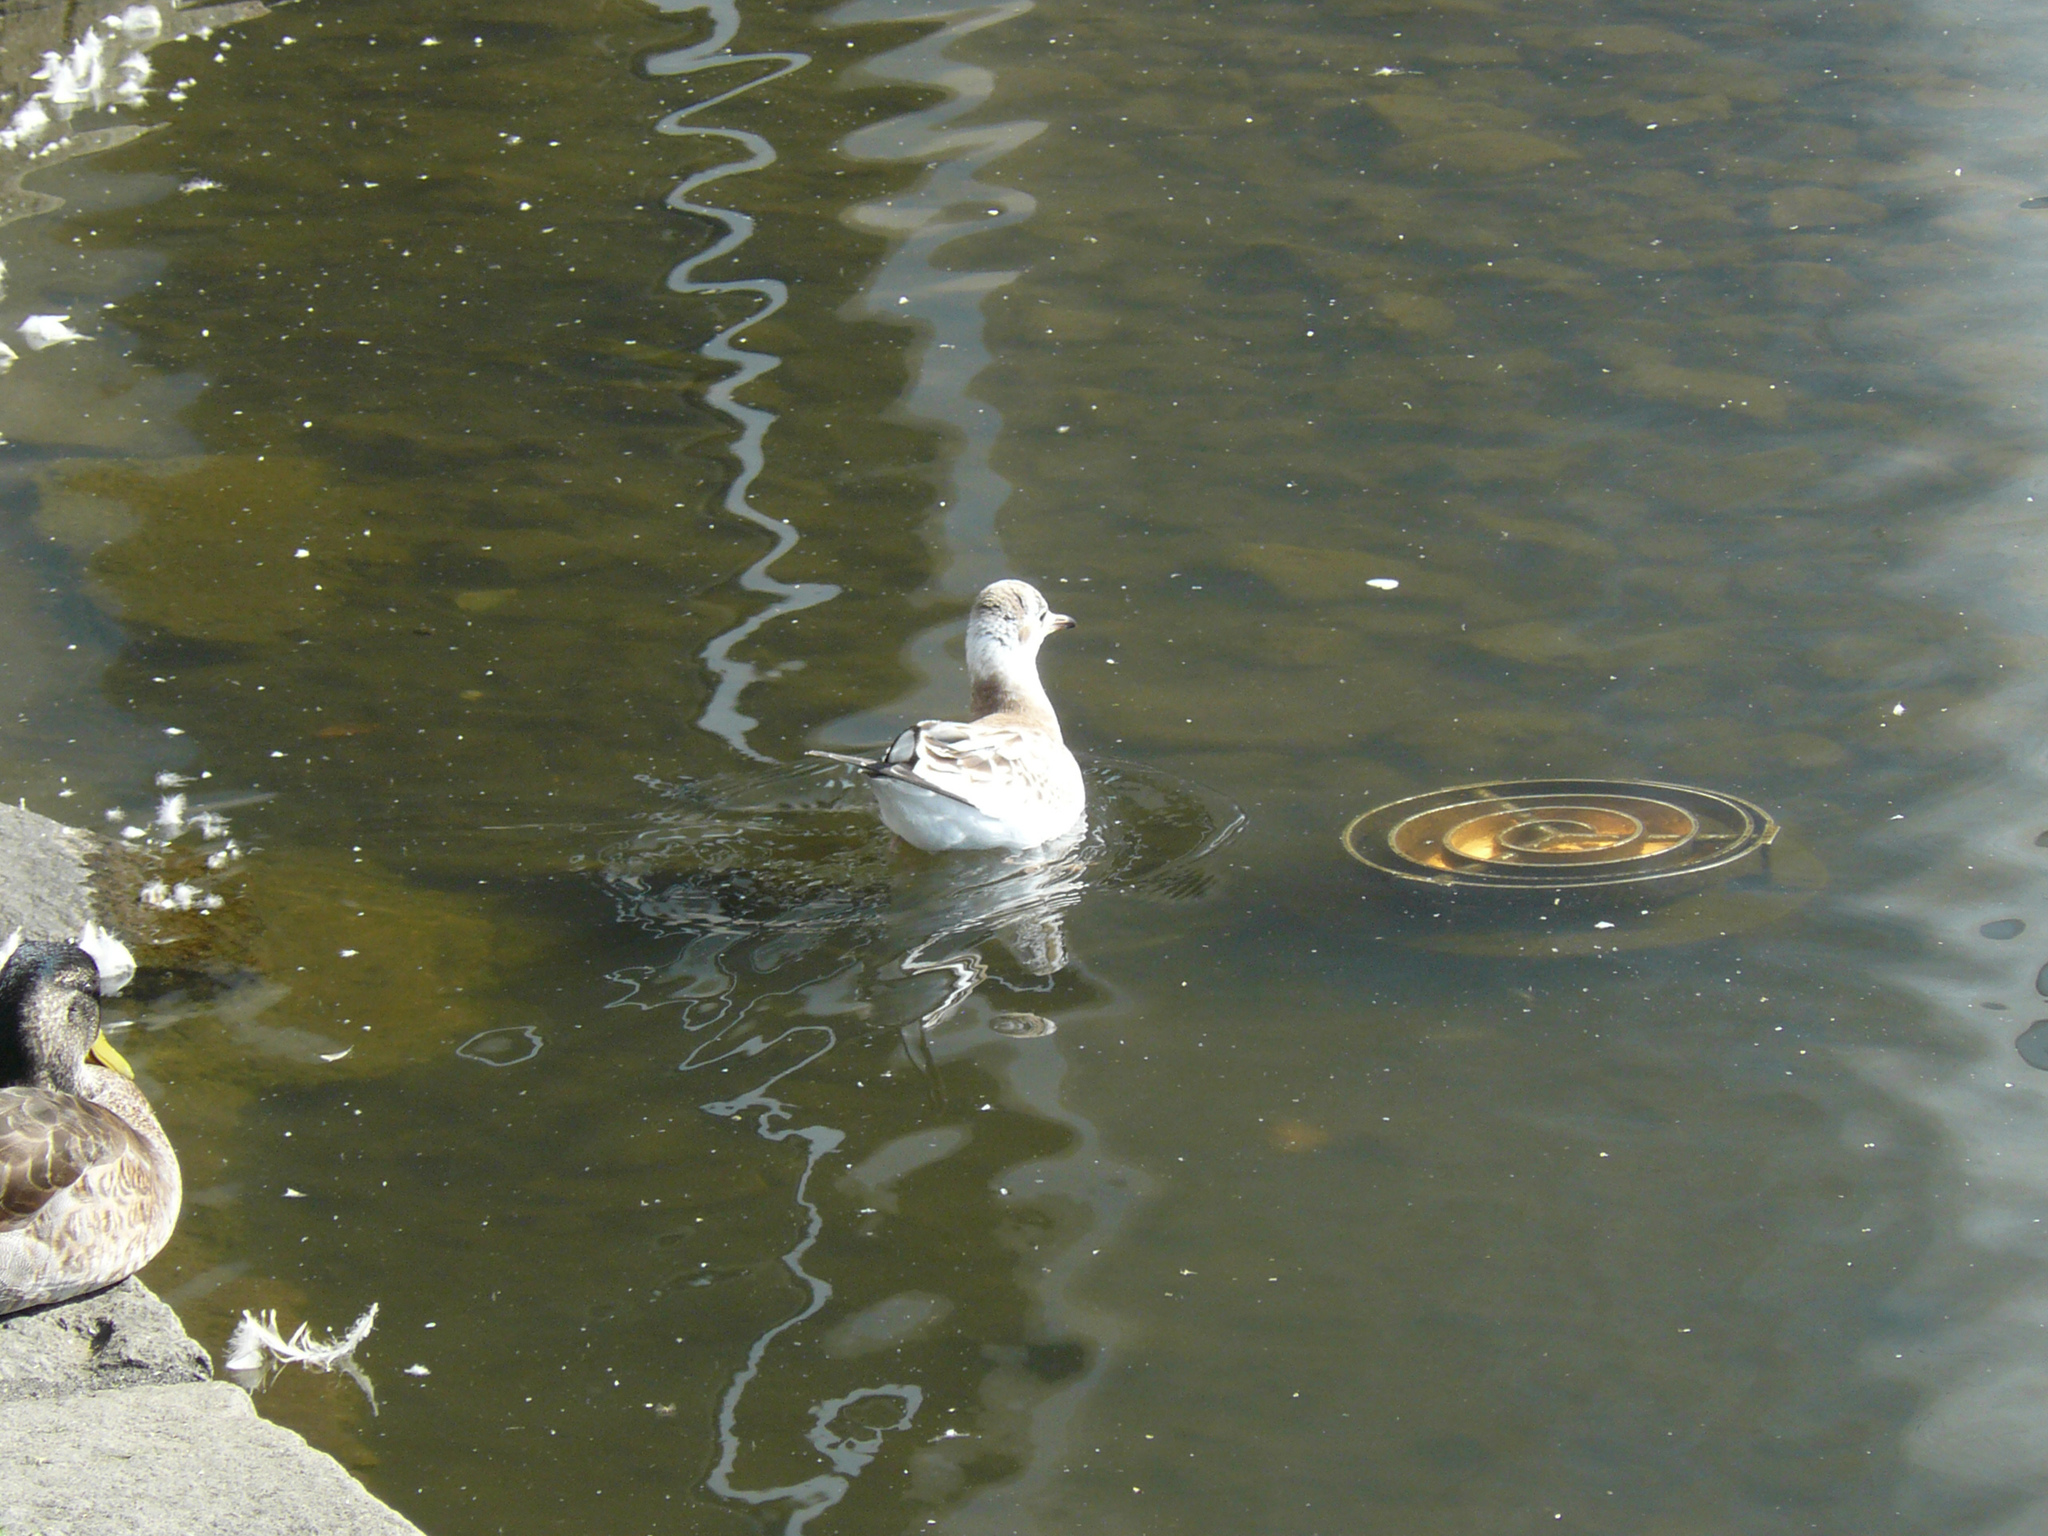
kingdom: Animalia
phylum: Chordata
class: Aves
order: Charadriiformes
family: Laridae
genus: Chroicocephalus
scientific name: Chroicocephalus ridibundus
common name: Black-headed gull
